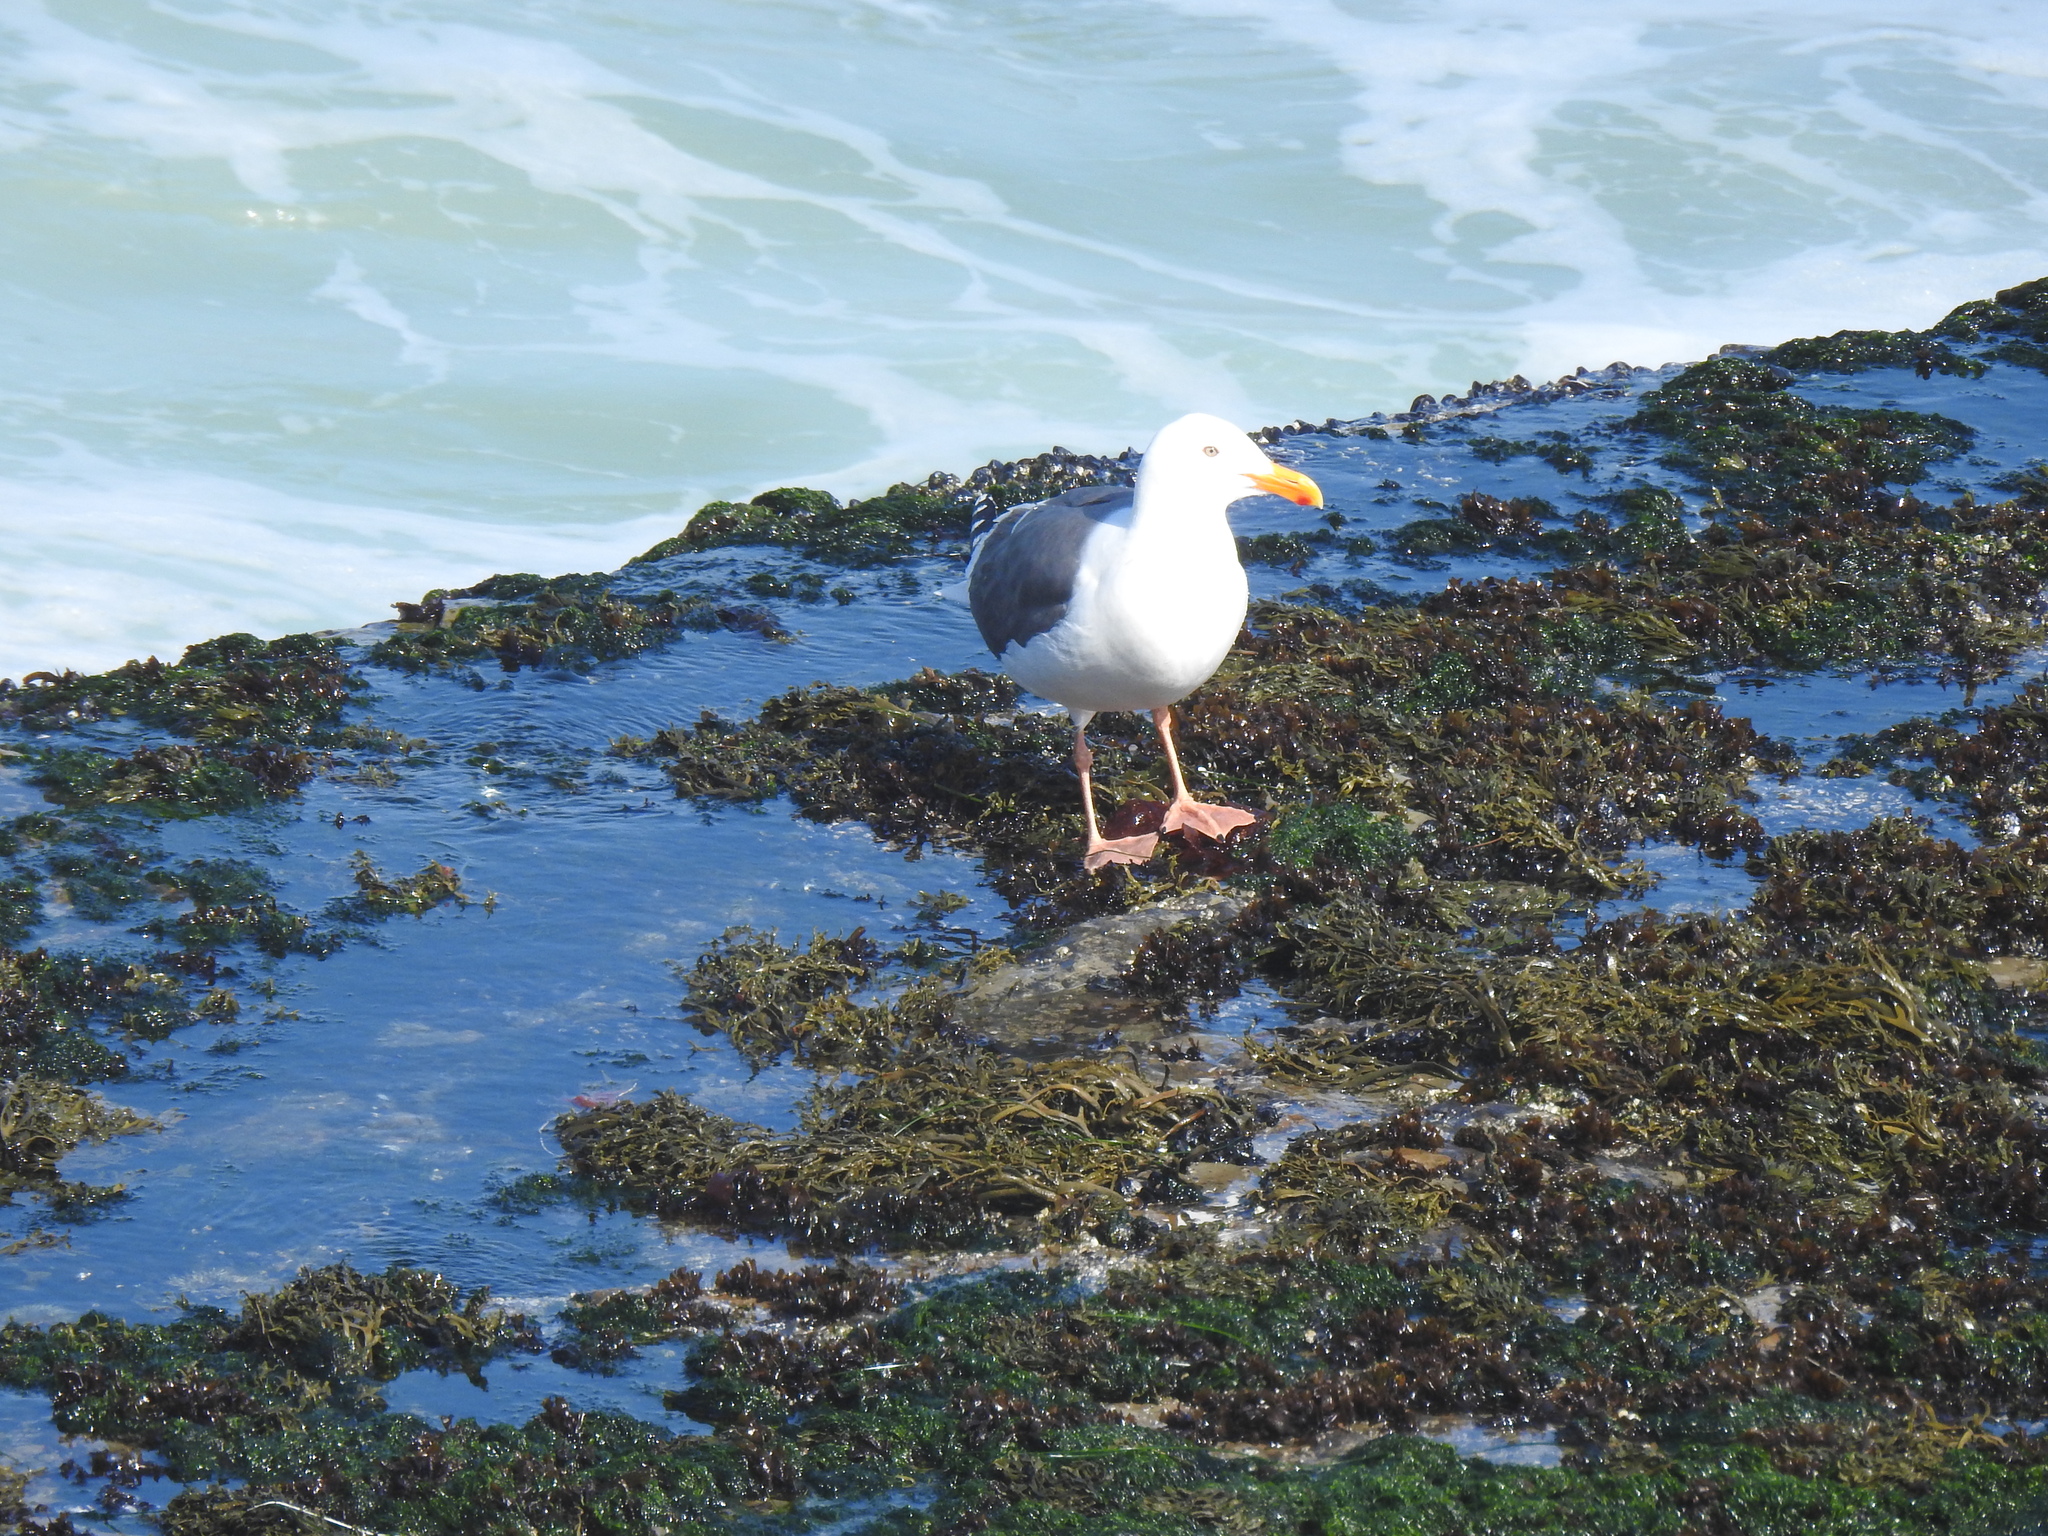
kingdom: Animalia
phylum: Chordata
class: Aves
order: Charadriiformes
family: Laridae
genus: Larus
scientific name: Larus occidentalis
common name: Western gull
